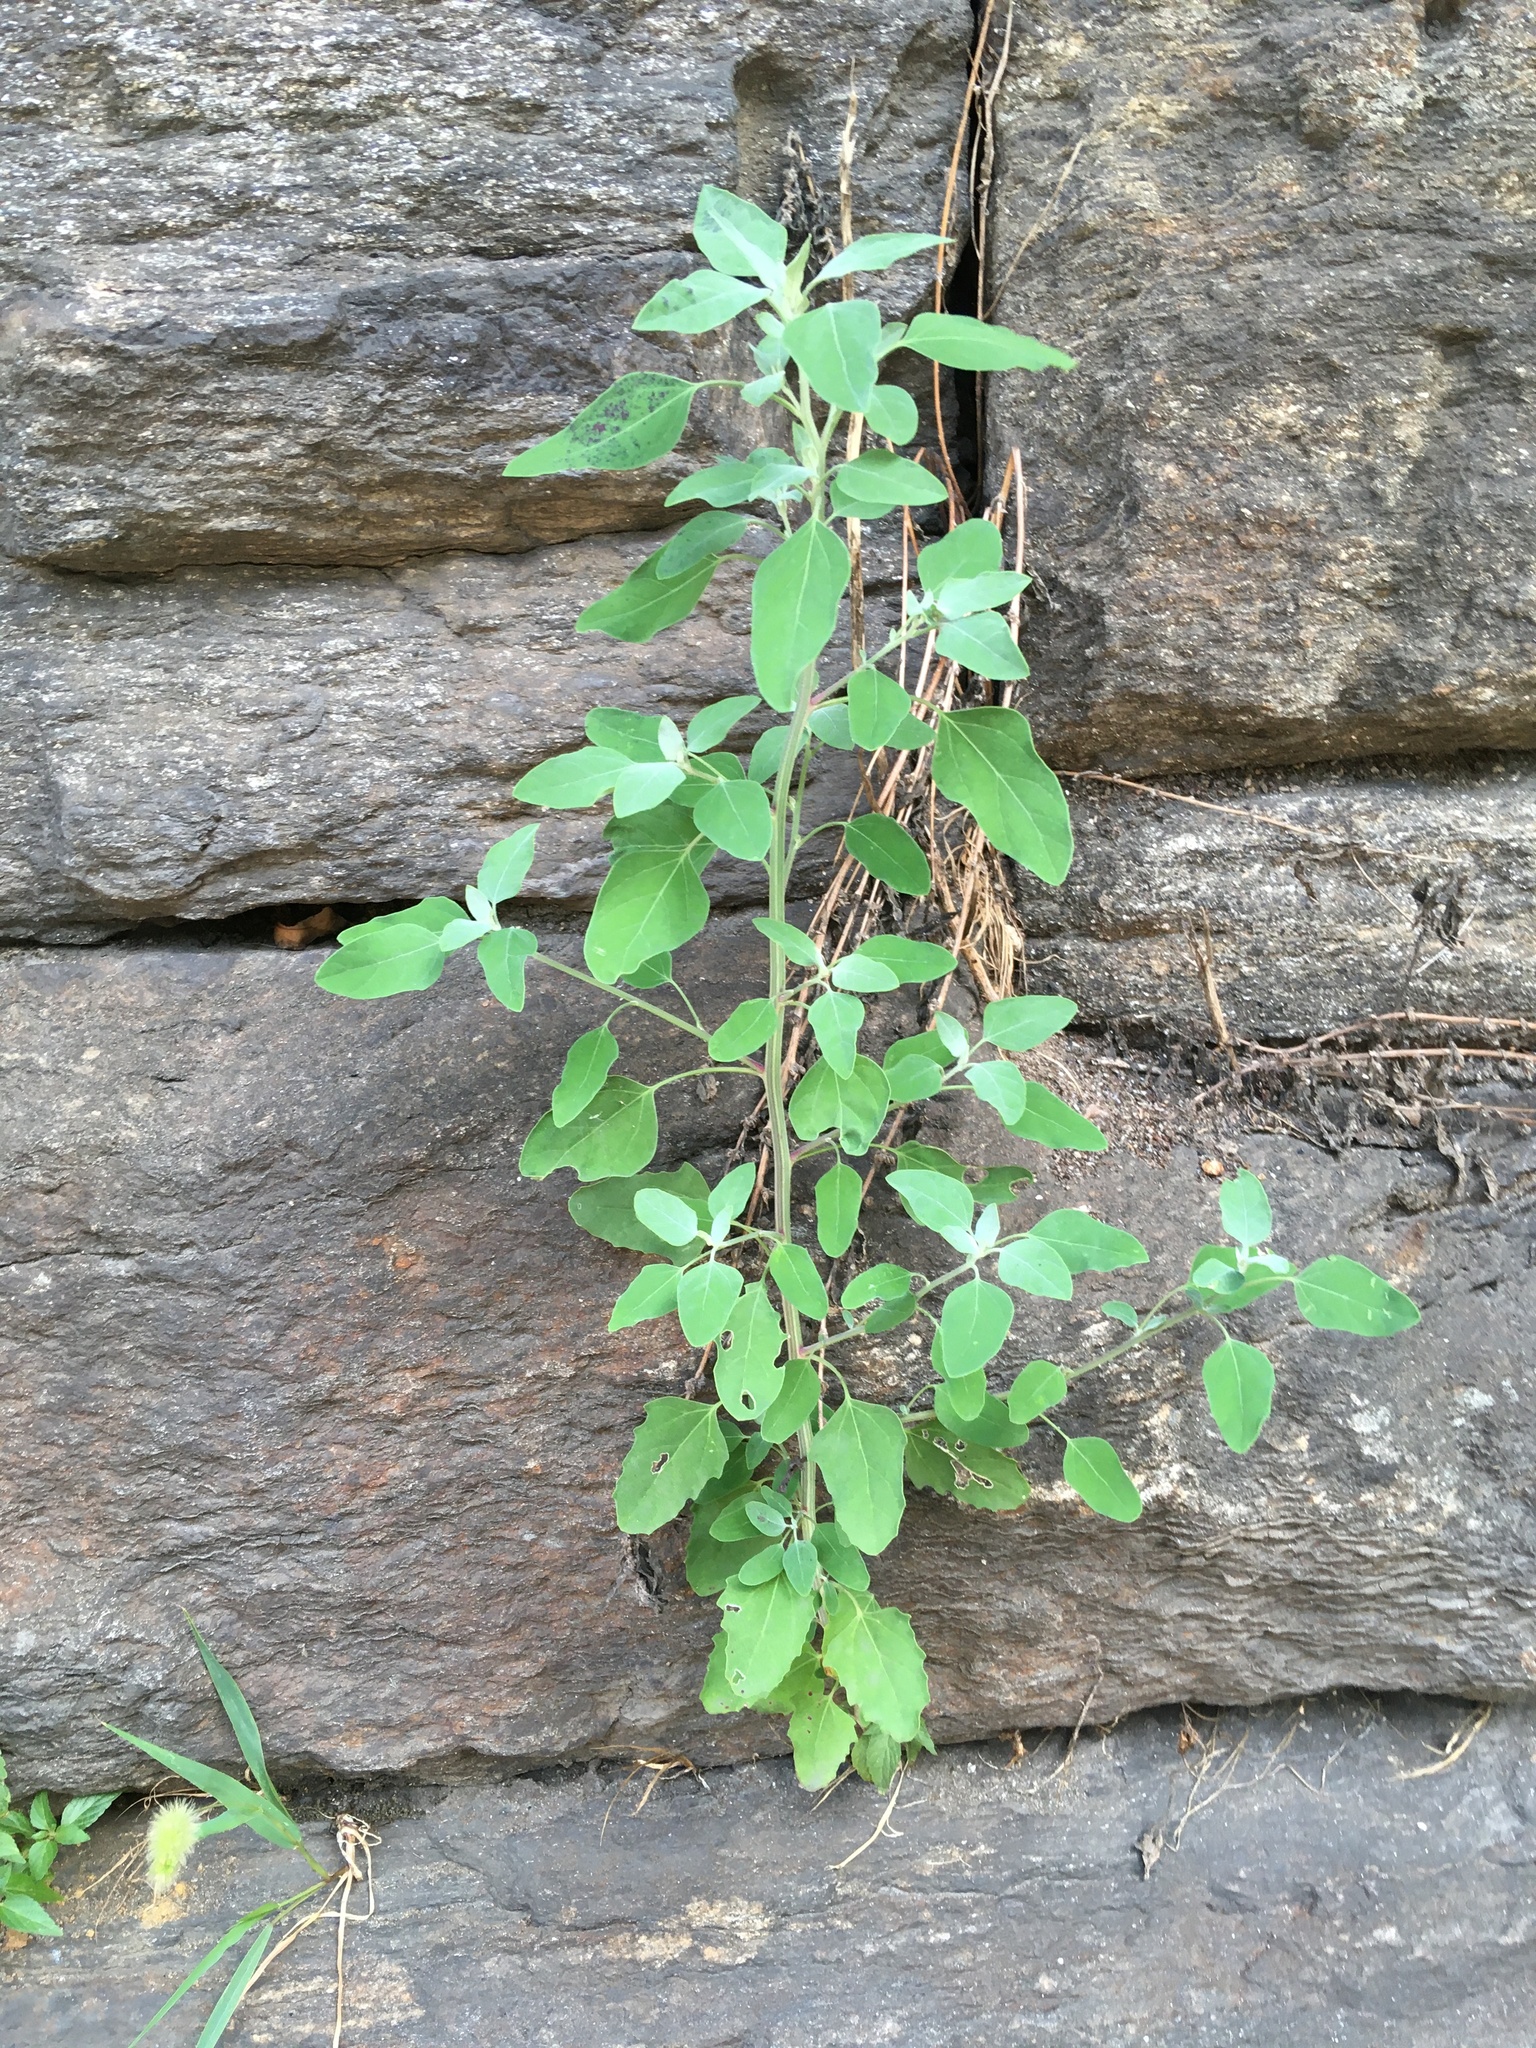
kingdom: Plantae
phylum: Tracheophyta
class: Magnoliopsida
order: Caryophyllales
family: Amaranthaceae
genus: Chenopodium
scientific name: Chenopodium album
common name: Fat-hen
